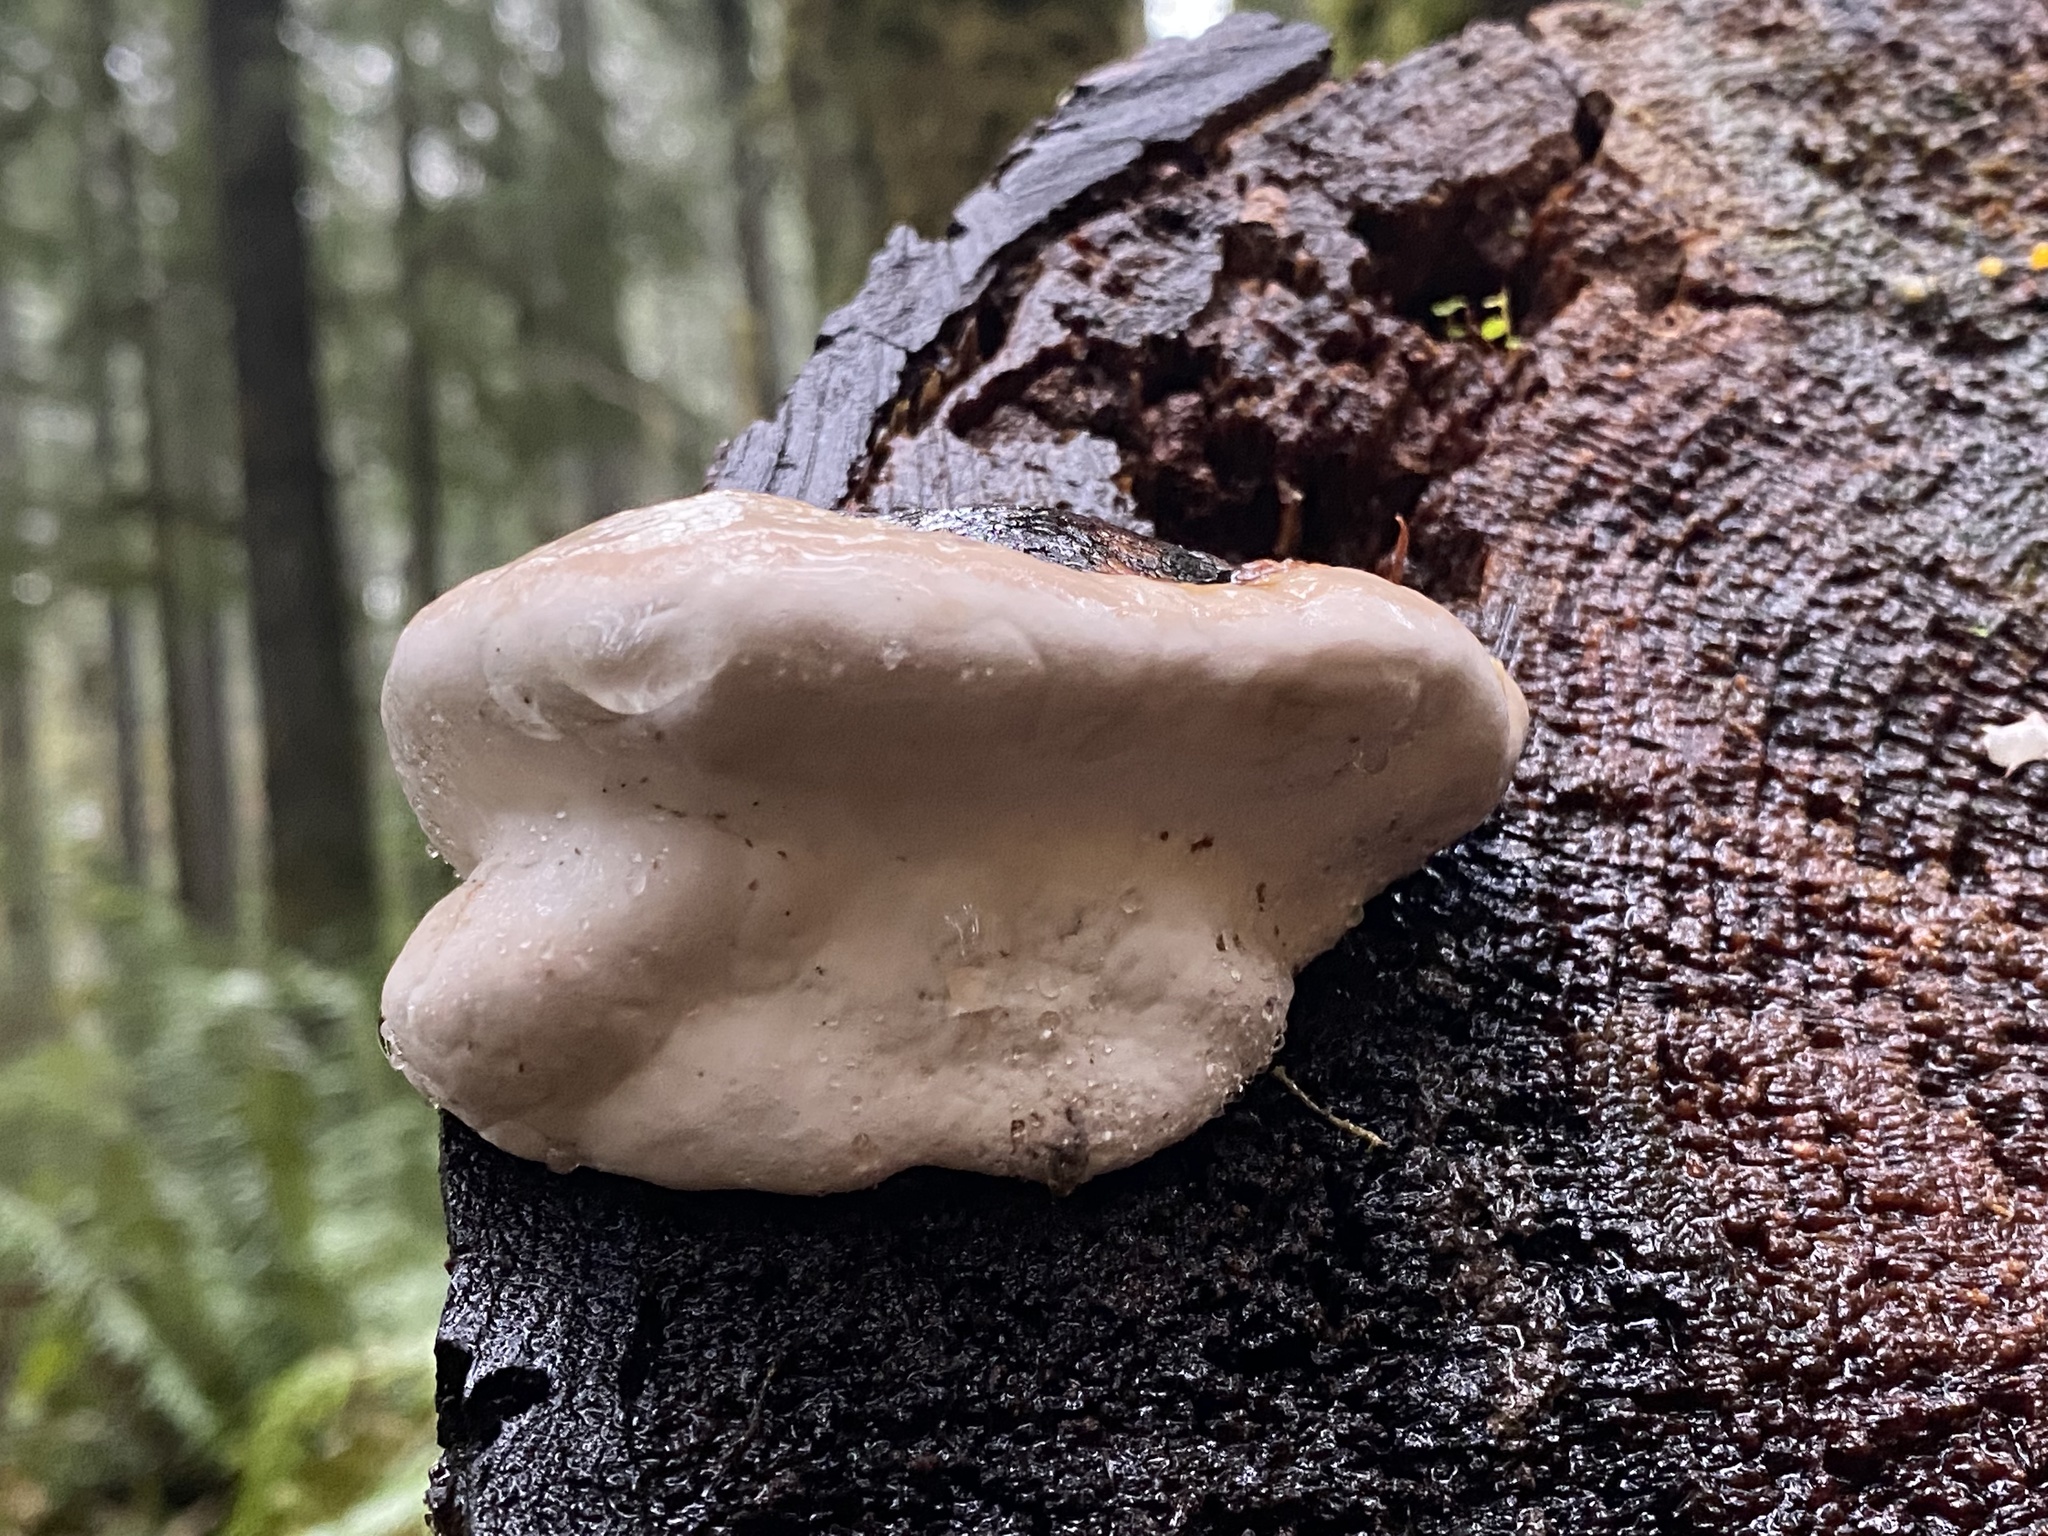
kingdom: Fungi
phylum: Basidiomycota
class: Agaricomycetes
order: Polyporales
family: Fomitopsidaceae
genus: Fomitopsis
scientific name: Fomitopsis mounceae
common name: Northern red belt
